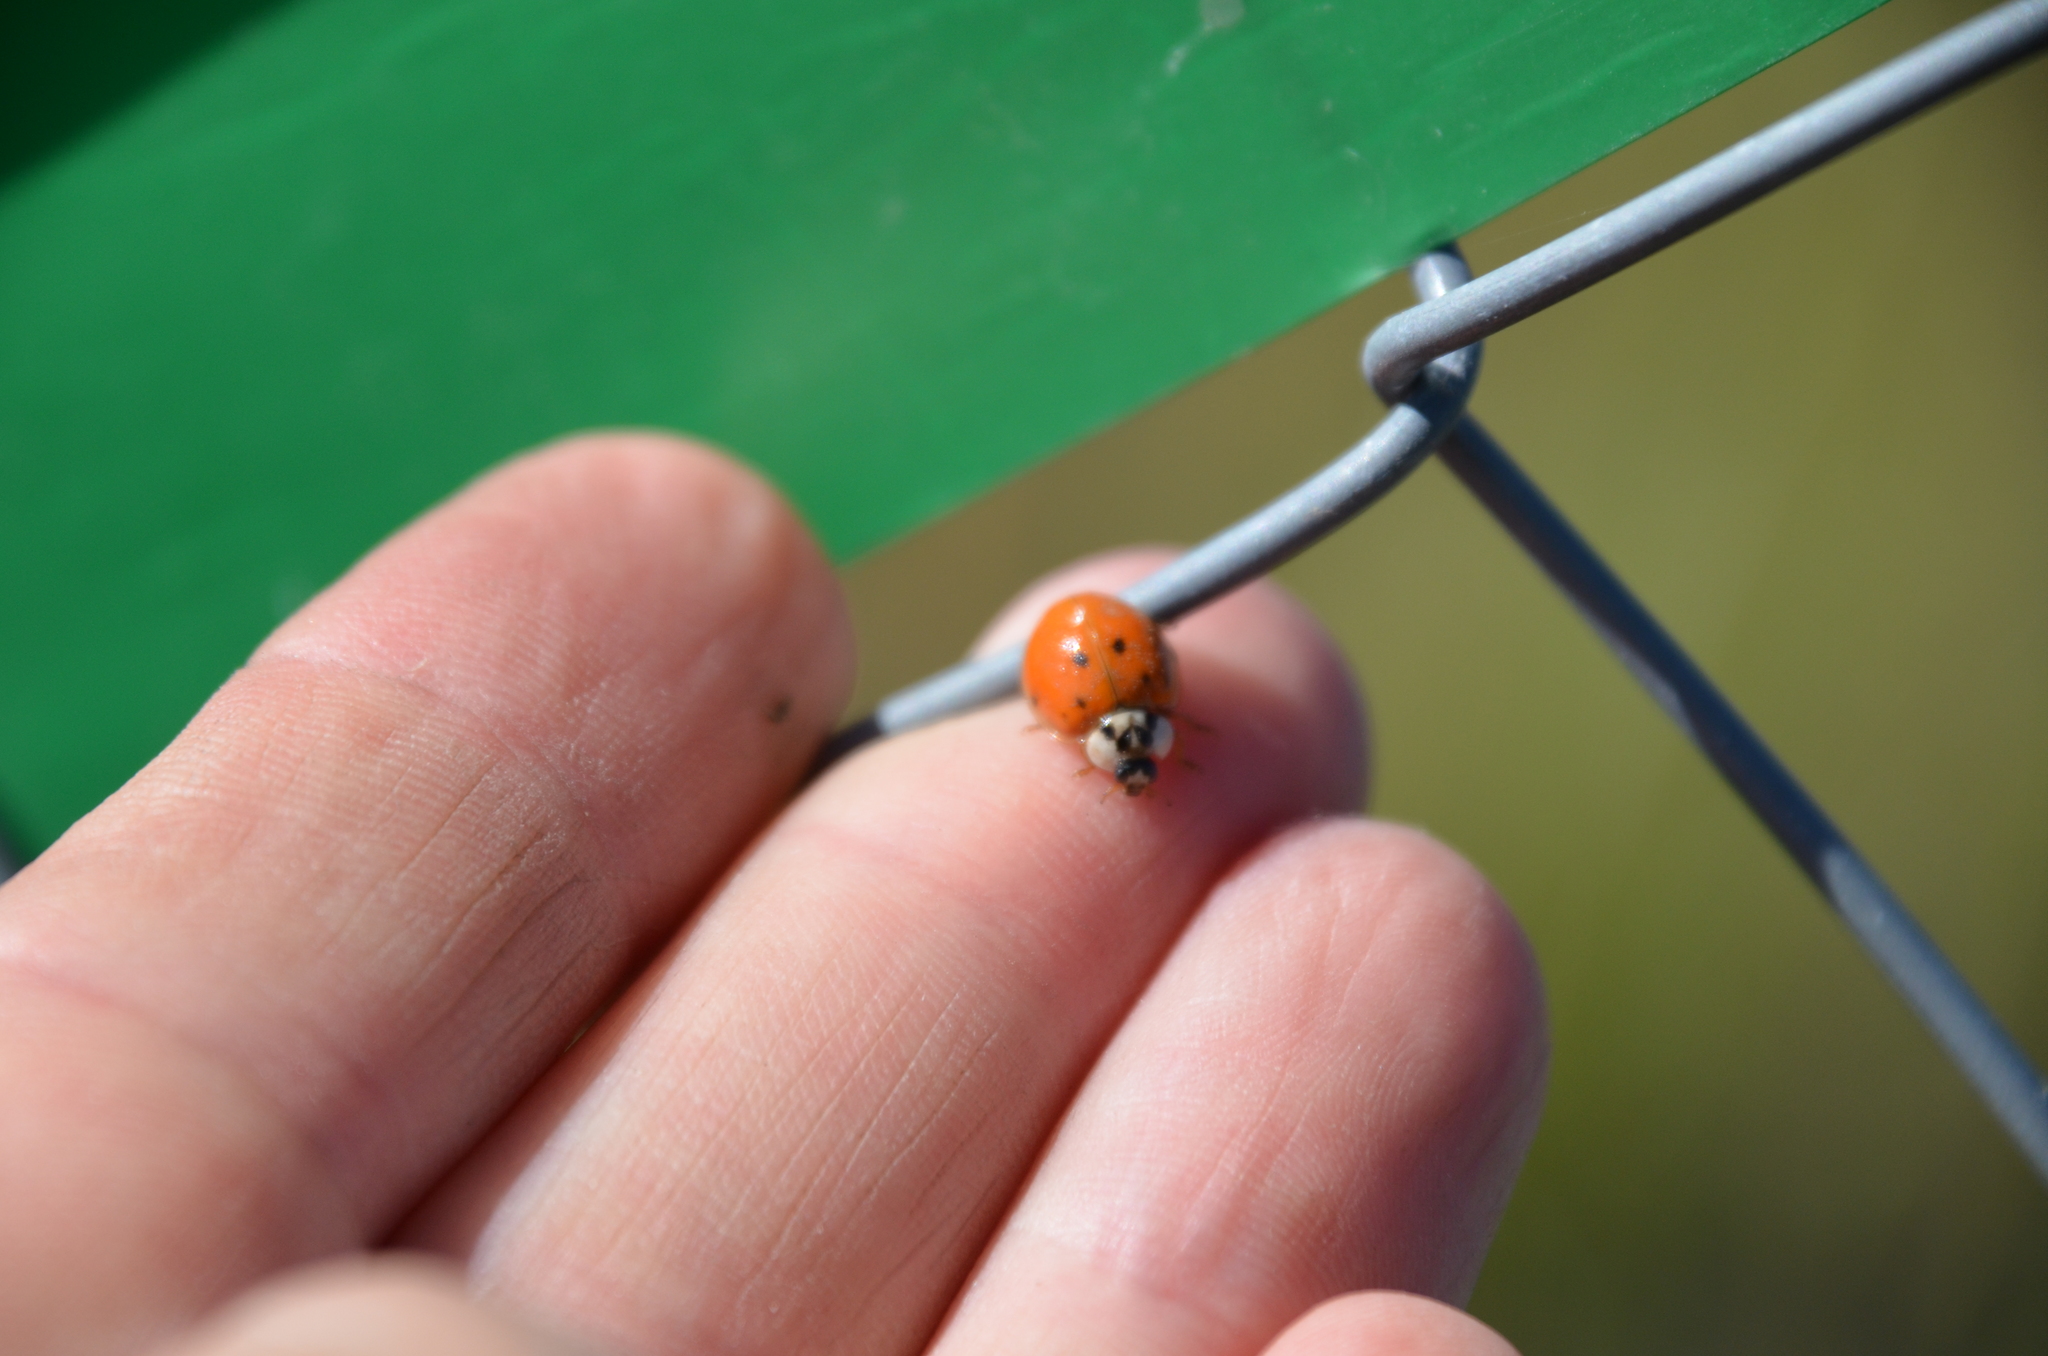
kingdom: Animalia
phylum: Arthropoda
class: Insecta
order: Coleoptera
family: Coccinellidae
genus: Harmonia
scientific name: Harmonia axyridis
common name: Harlequin ladybird
